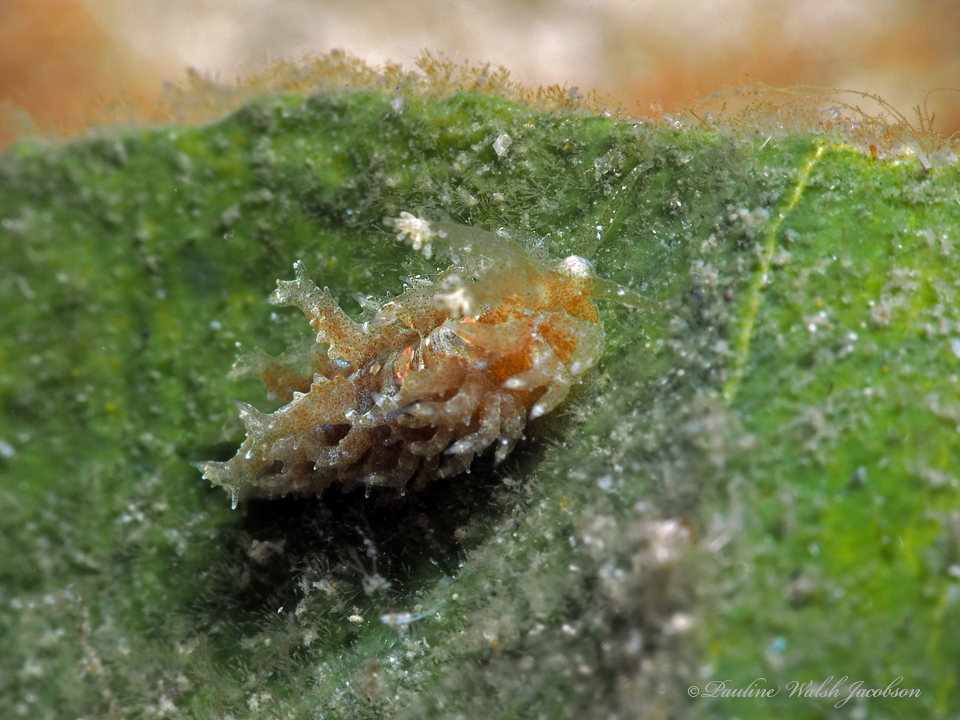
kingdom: Animalia
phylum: Mollusca
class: Gastropoda
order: Nudibranchia
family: Aeolidiidae
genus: Limenandra
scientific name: Limenandra nodosa
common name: Warty baeolidia
